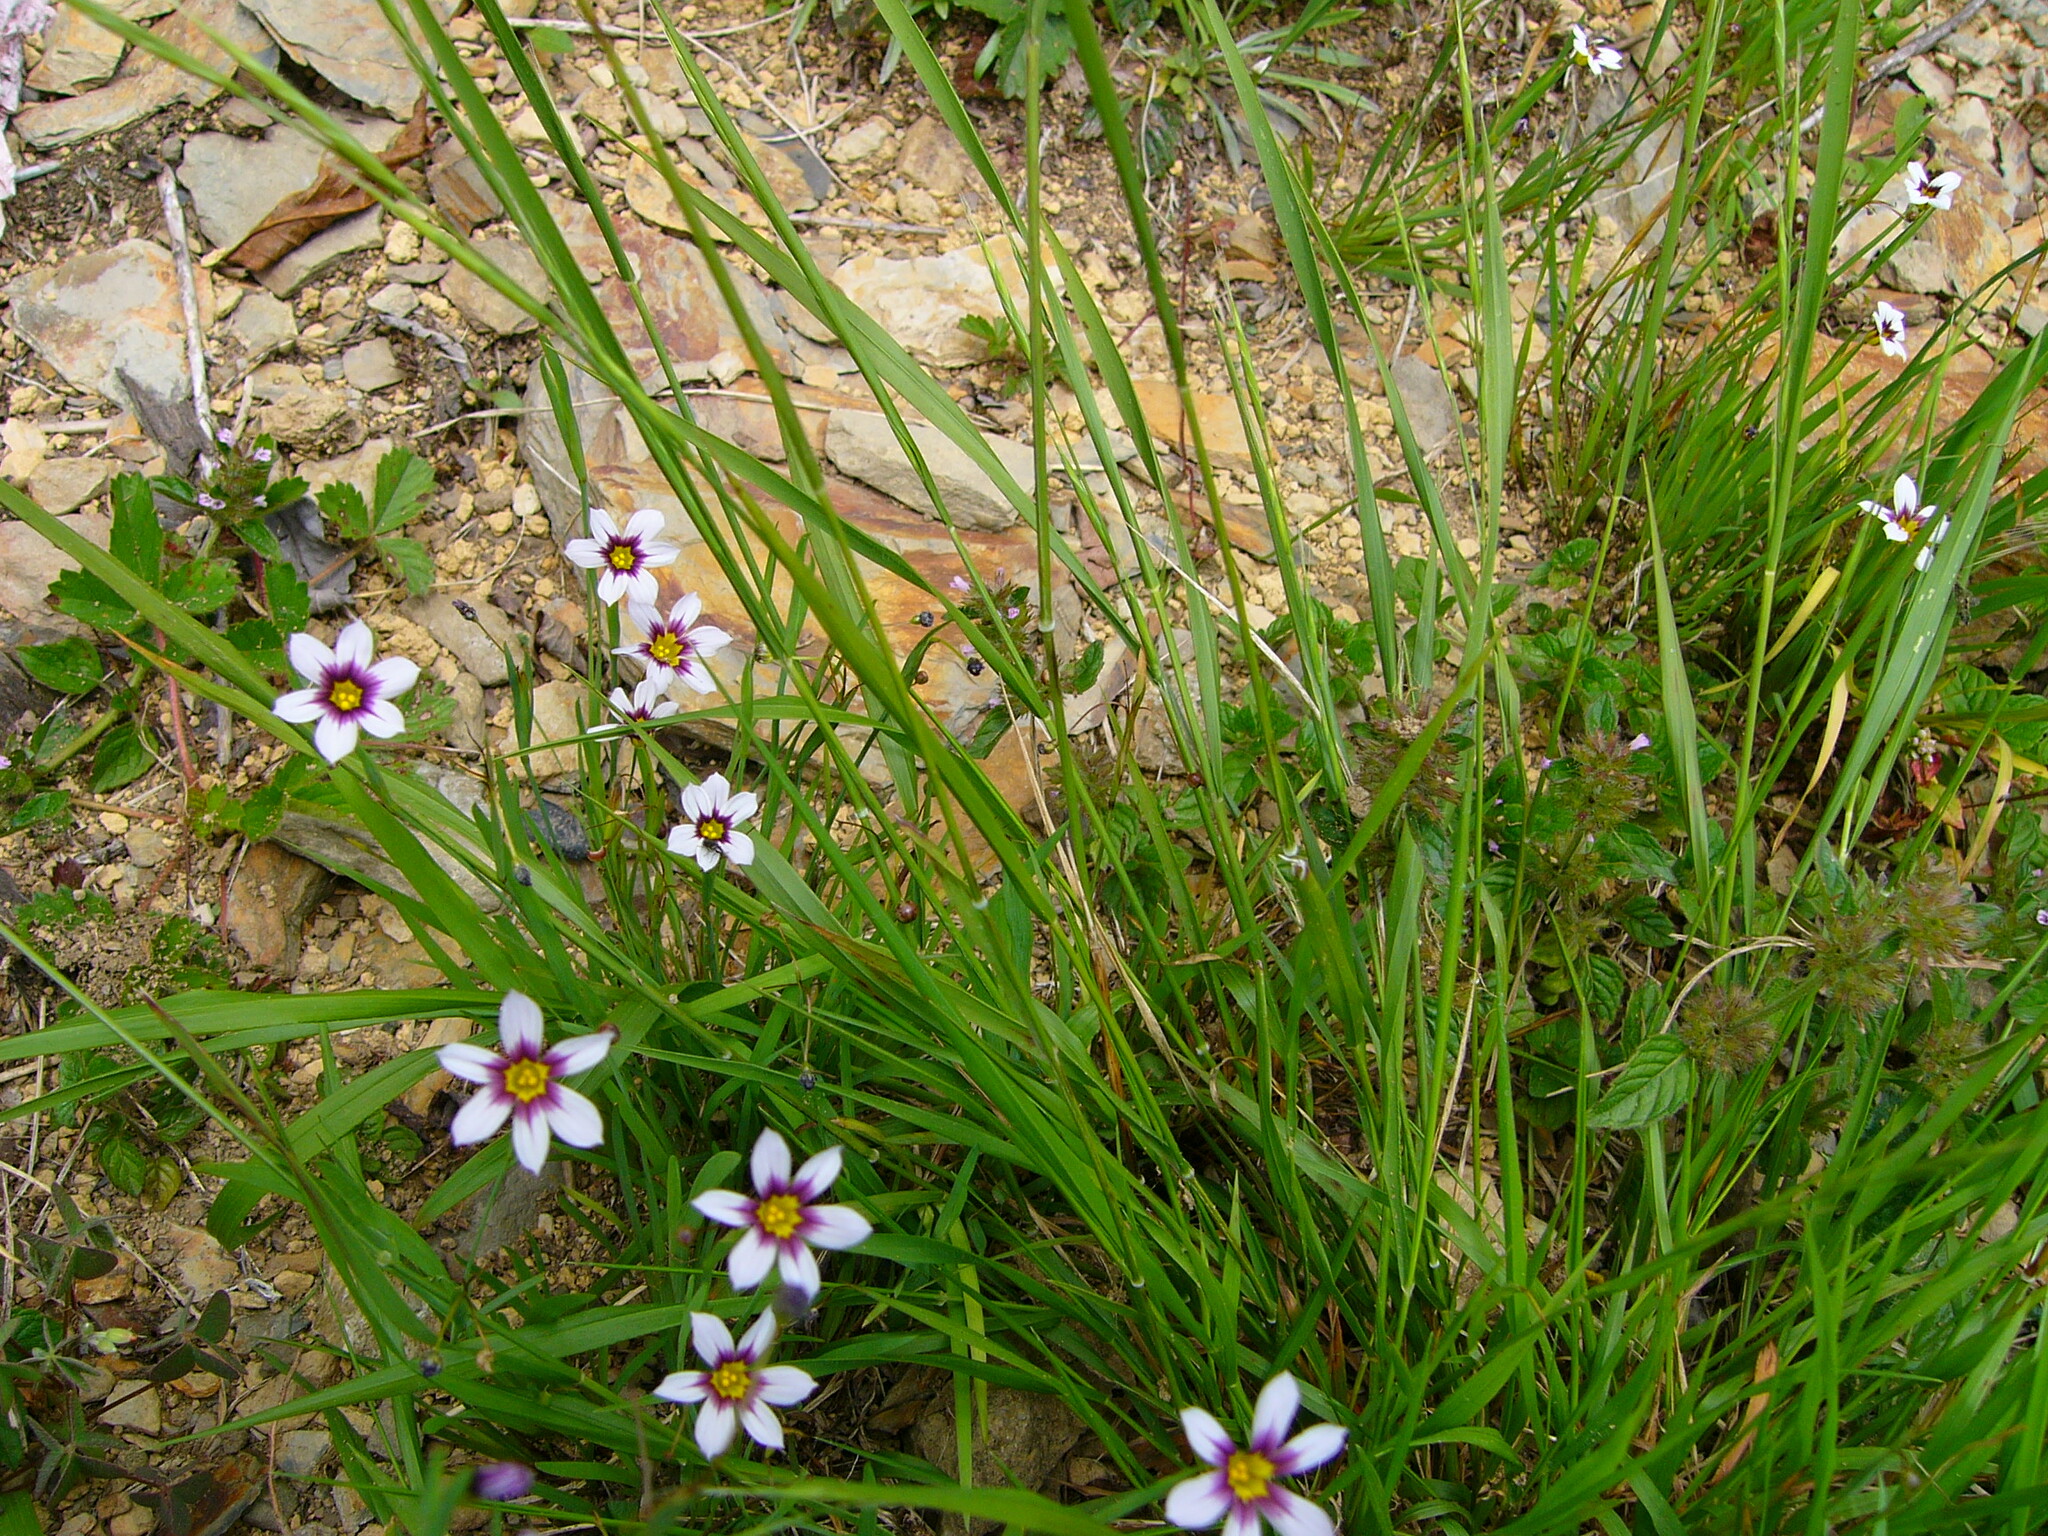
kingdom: Plantae
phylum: Tracheophyta
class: Liliopsida
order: Asparagales
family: Iridaceae
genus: Sisyrinchium
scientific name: Sisyrinchium micranthum
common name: Bermuda pigroot
